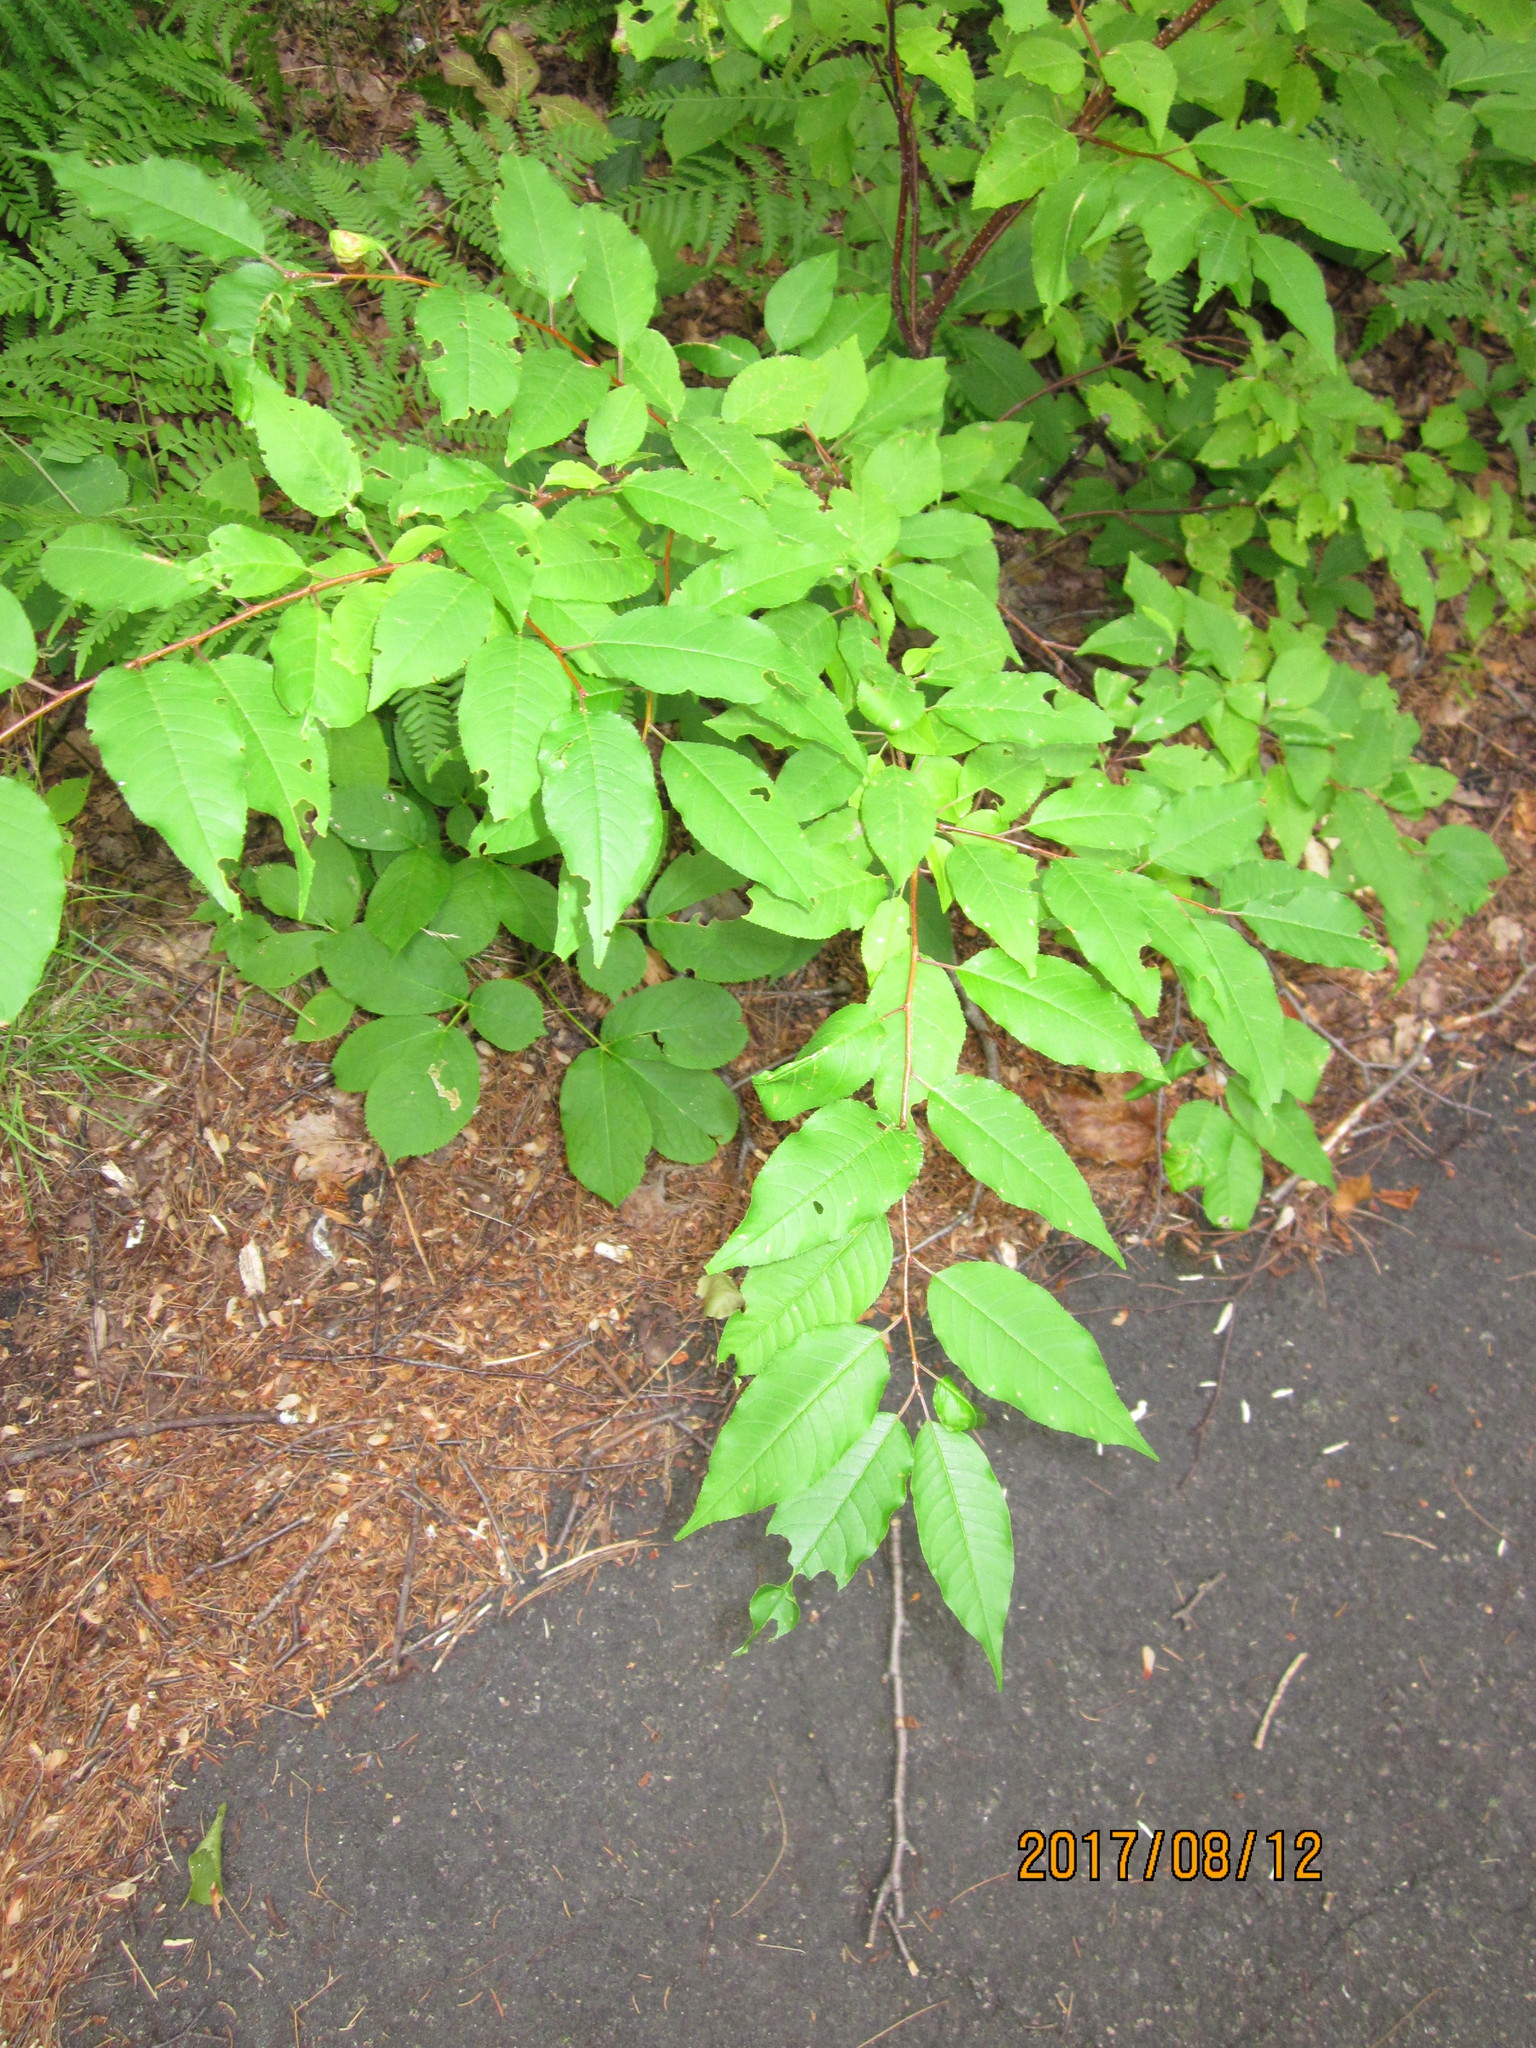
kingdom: Plantae
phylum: Tracheophyta
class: Magnoliopsida
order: Rosales
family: Rosaceae
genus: Prunus
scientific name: Prunus pensylvanica
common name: Pin cherry
